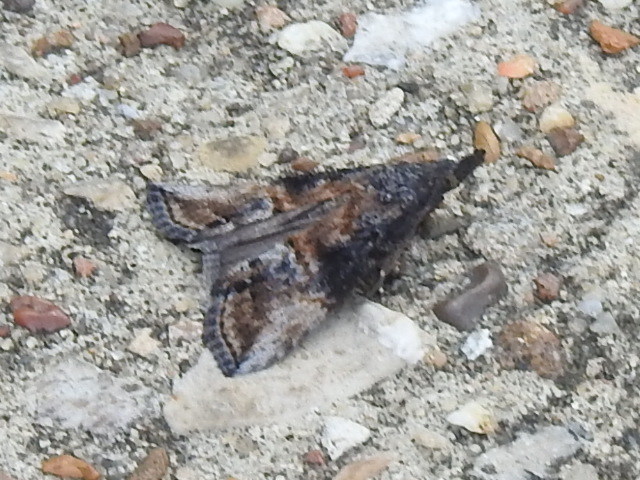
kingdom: Animalia
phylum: Arthropoda
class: Insecta
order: Lepidoptera
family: Erebidae
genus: Hypena
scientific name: Hypena scabra
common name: Green cloverworm
